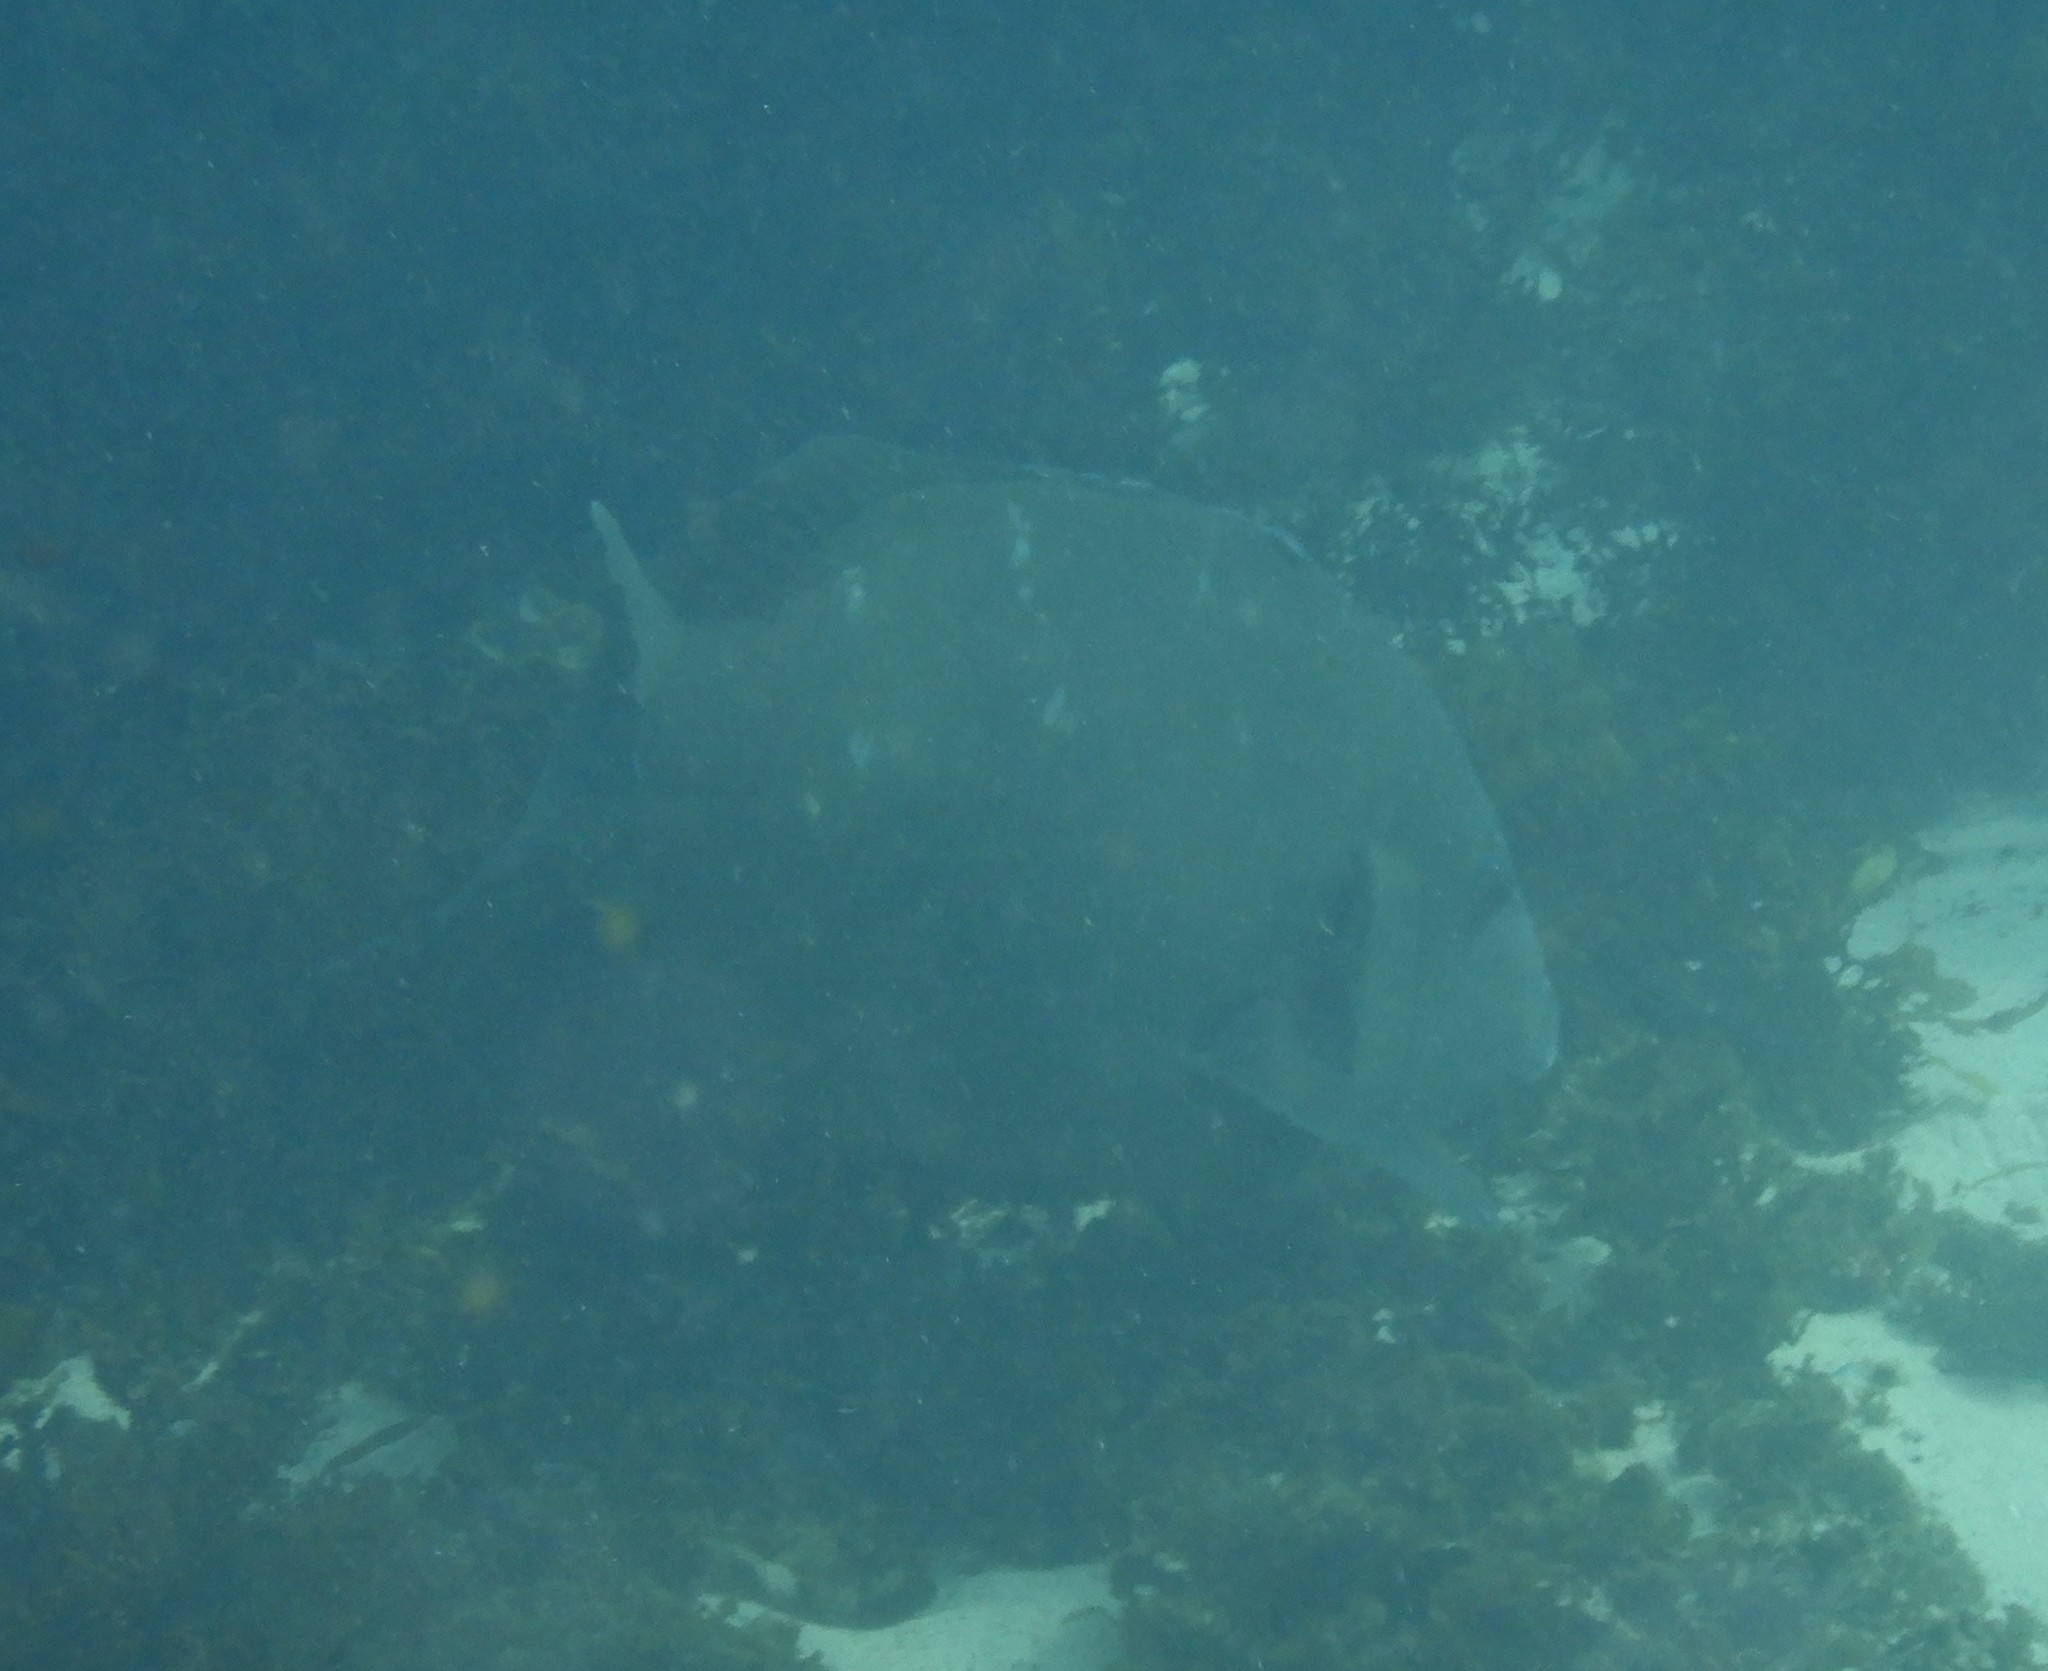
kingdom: Animalia
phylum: Chordata
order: Perciformes
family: Labridae
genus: Achoerodus
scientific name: Achoerodus viridis
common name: Brown groper
